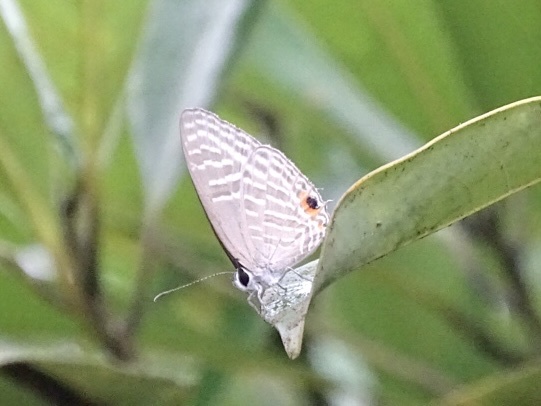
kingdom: Animalia
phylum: Arthropoda
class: Insecta
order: Lepidoptera
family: Lycaenidae
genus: Jamides
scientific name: Jamides alecto
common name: Metallic cerulean
